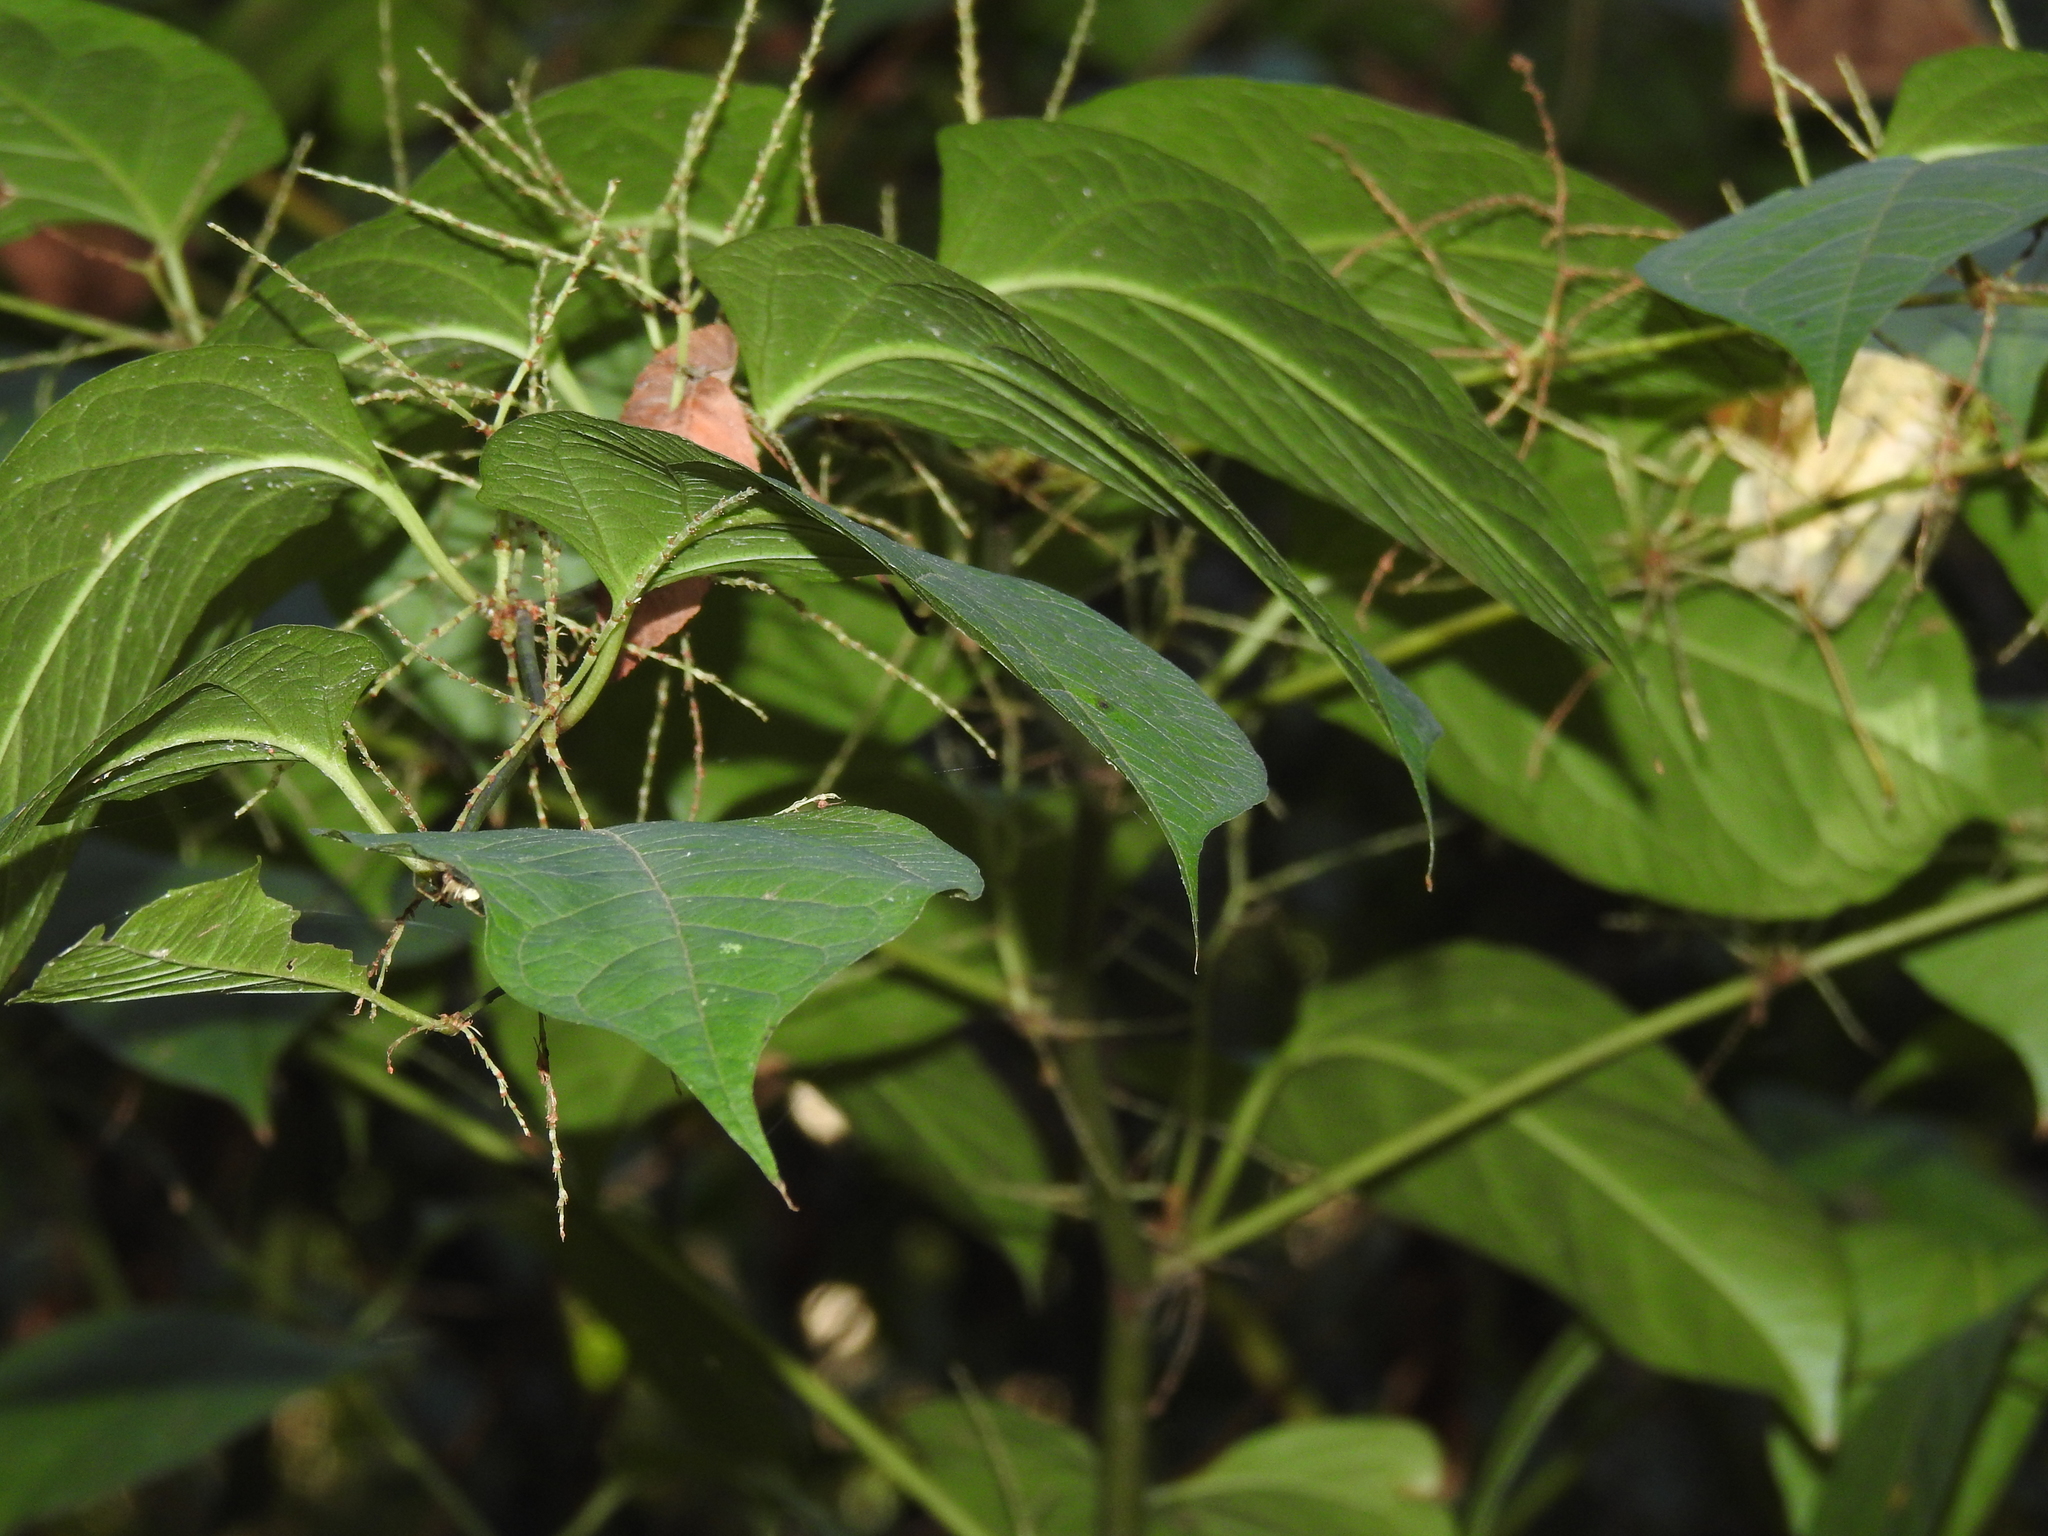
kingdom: Plantae
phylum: Tracheophyta
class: Magnoliopsida
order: Caryophyllales
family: Polygonaceae
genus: Reynoutria
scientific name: Reynoutria japonica
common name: Japanese knotweed
